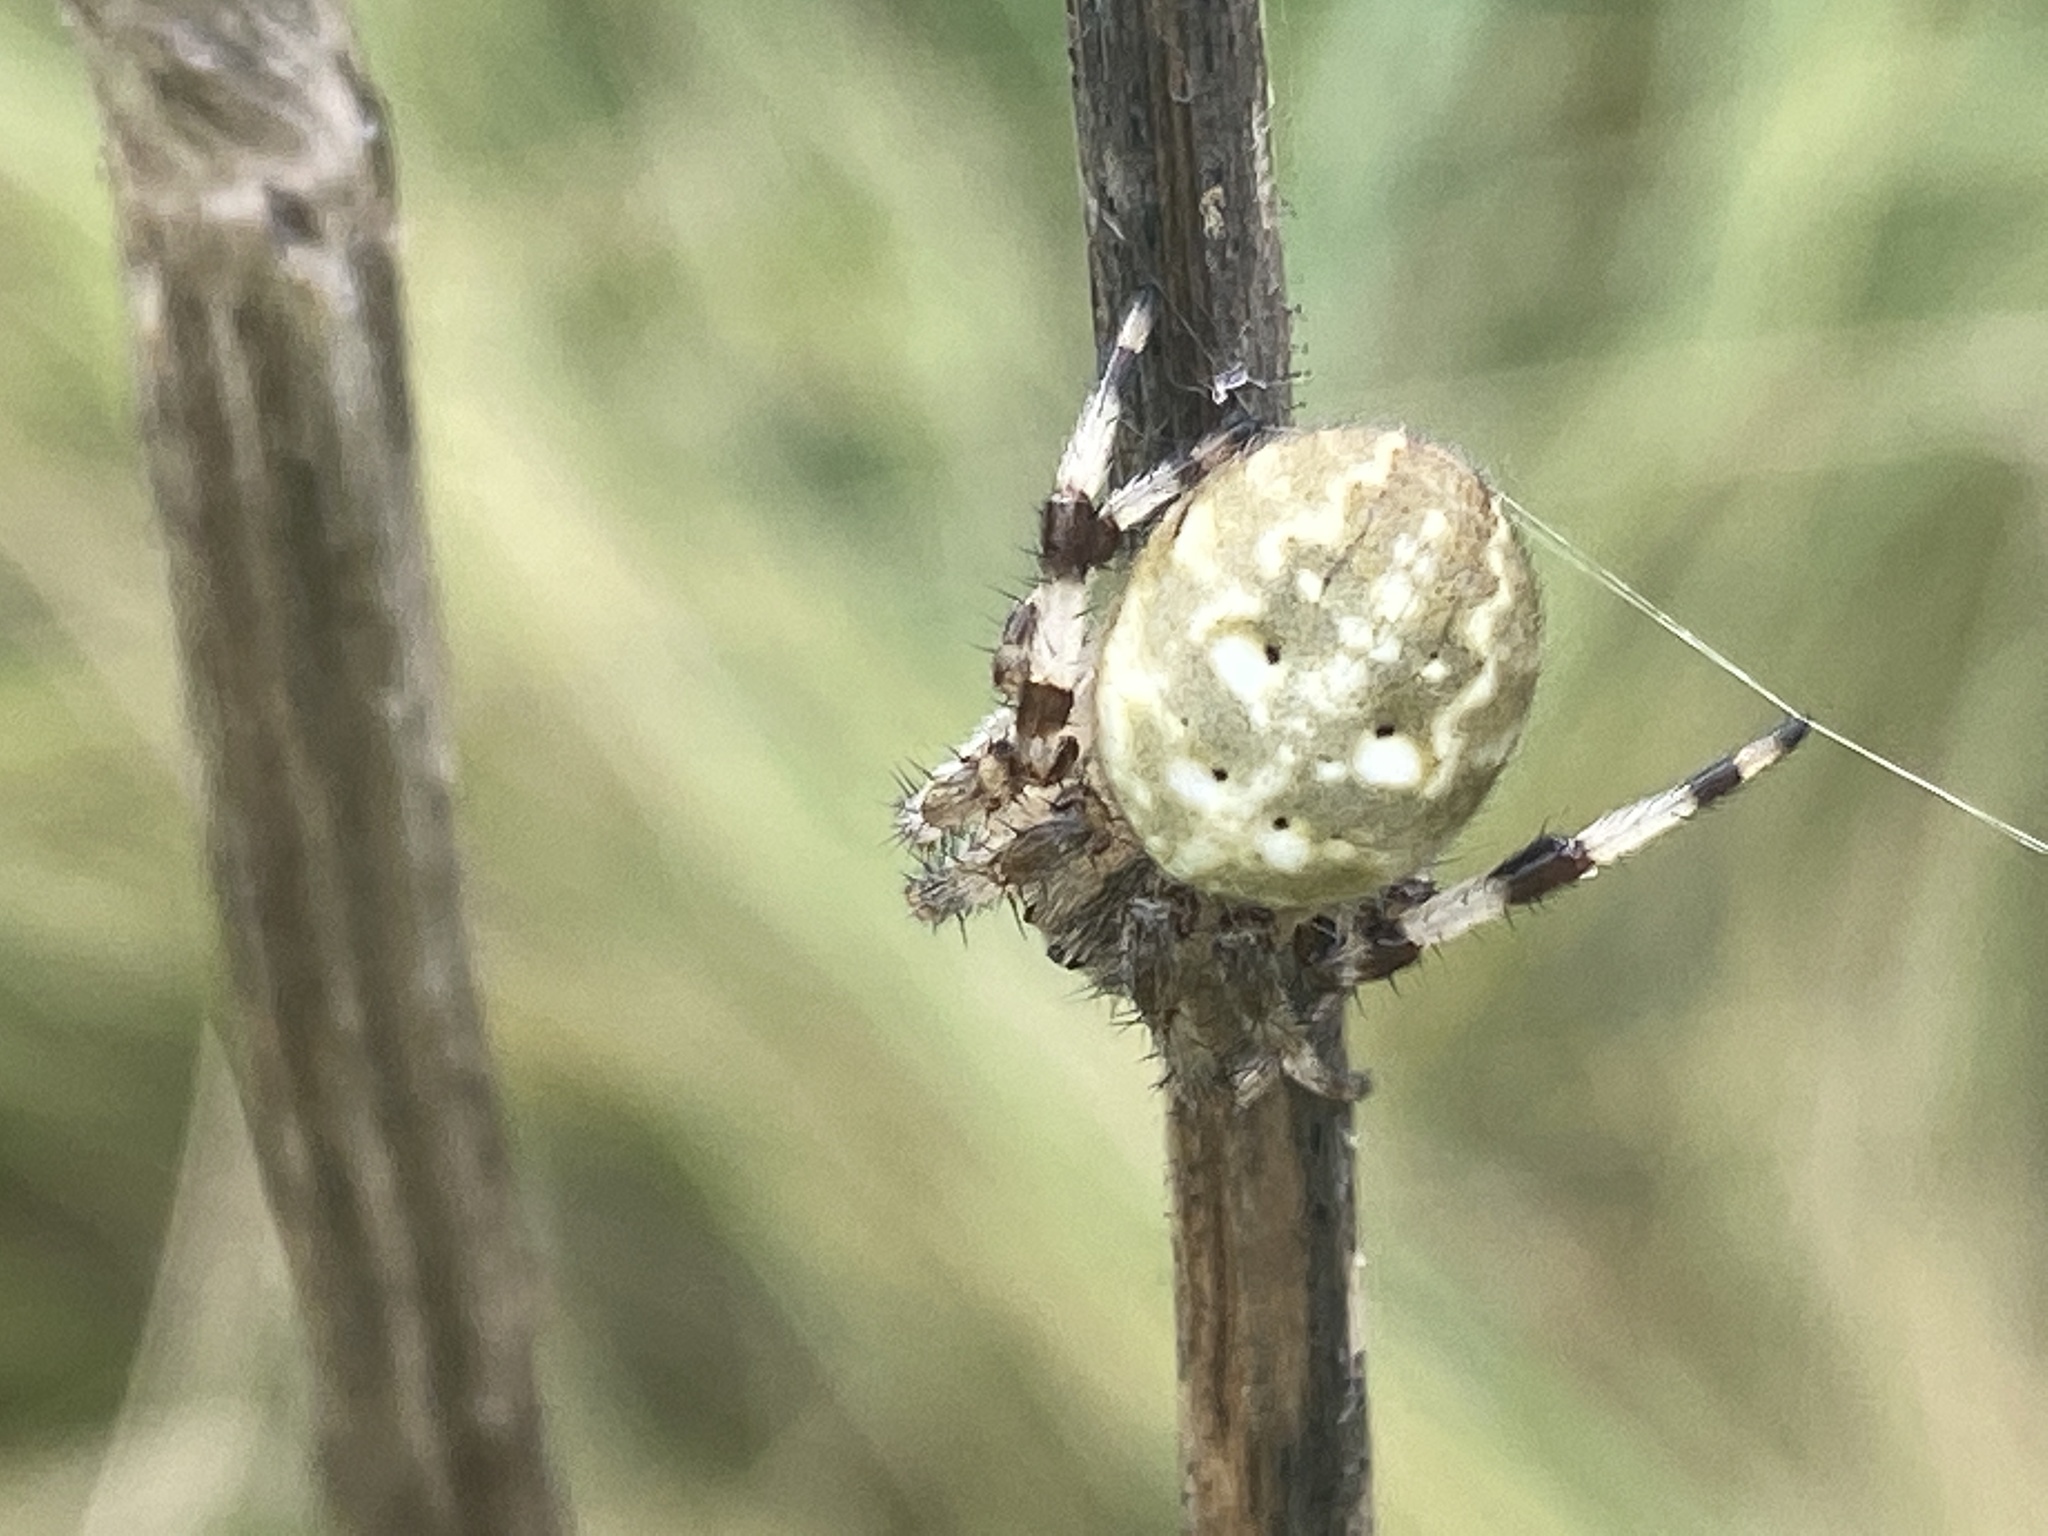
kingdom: Animalia
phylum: Arthropoda
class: Arachnida
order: Araneae
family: Araneidae
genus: Araneus
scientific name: Araneus quadratus
